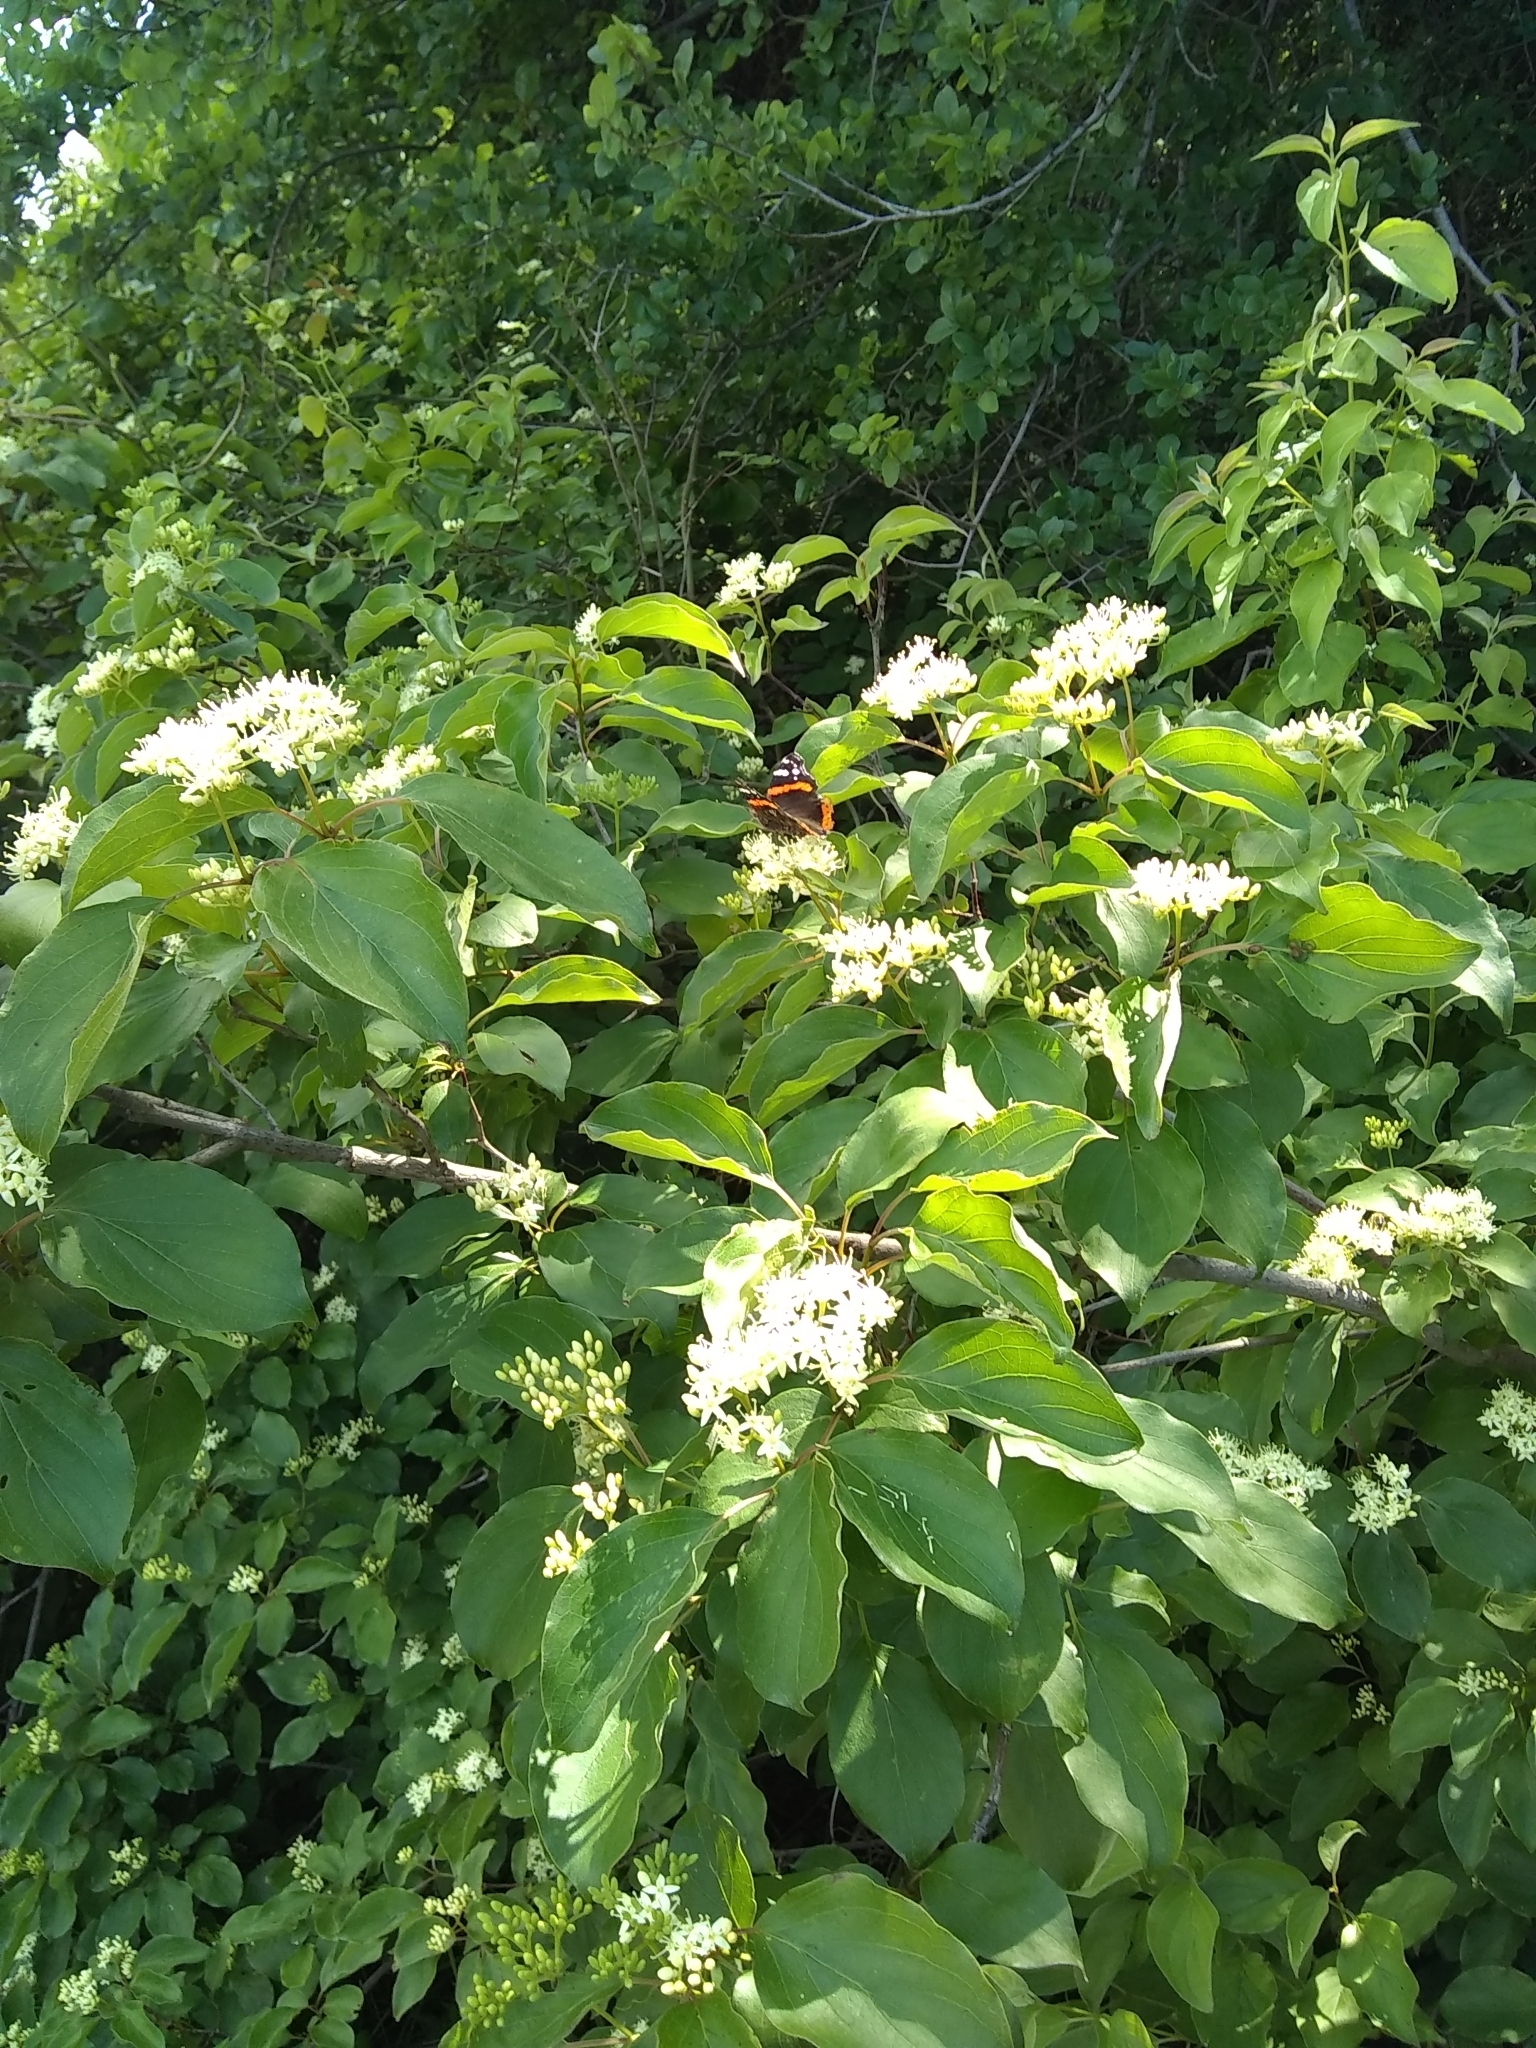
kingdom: Animalia
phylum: Arthropoda
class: Insecta
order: Lepidoptera
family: Nymphalidae
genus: Vanessa
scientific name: Vanessa atalanta
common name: Red admiral
